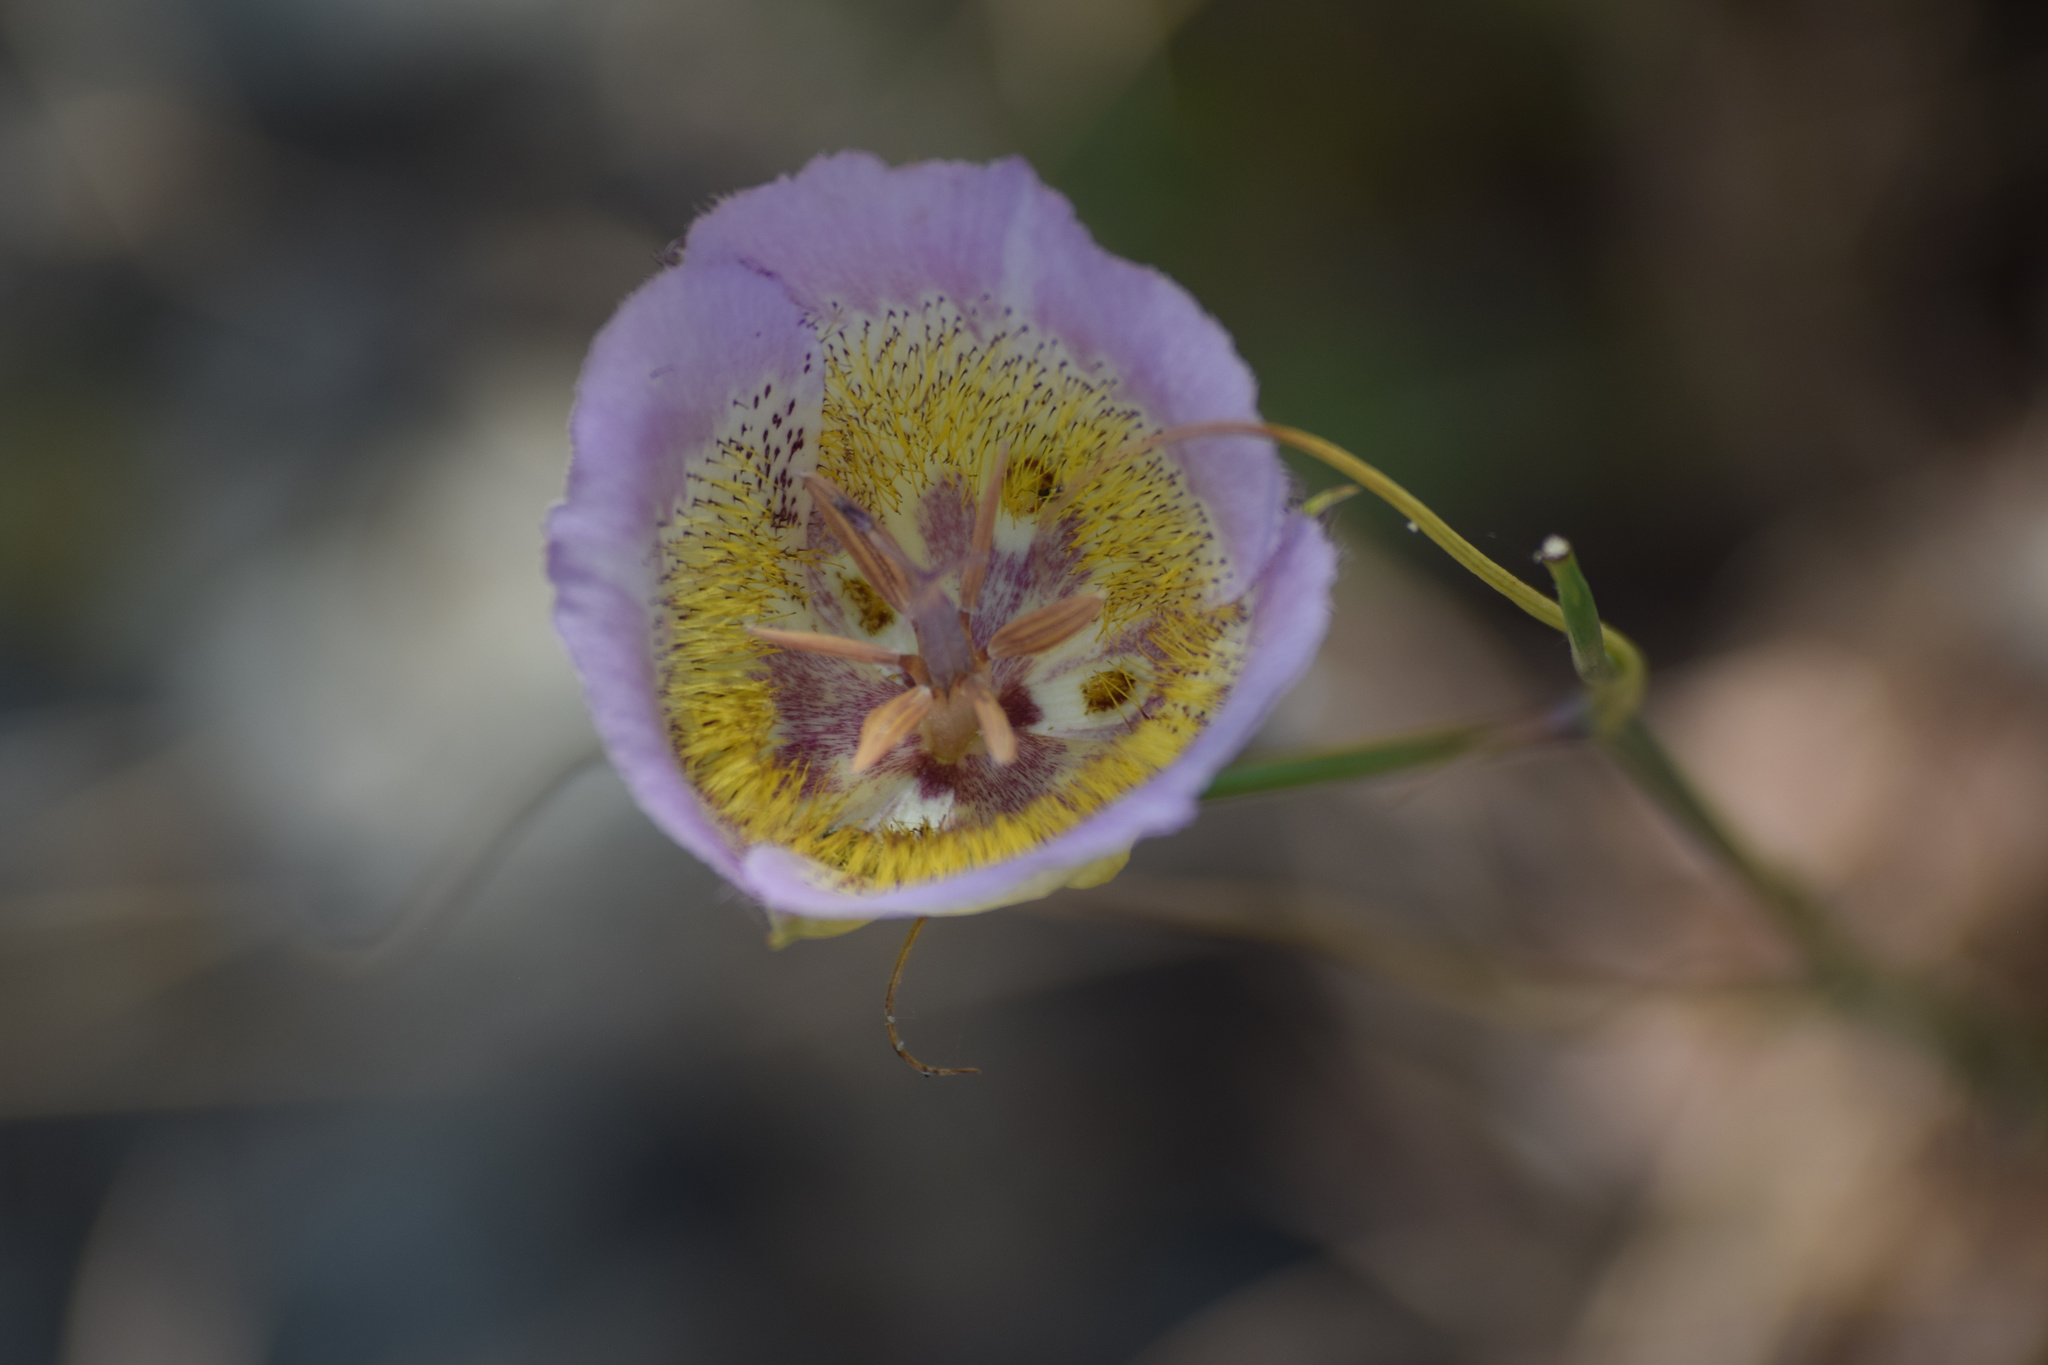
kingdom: Plantae
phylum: Tracheophyta
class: Liliopsida
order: Liliales
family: Liliaceae
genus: Calochortus
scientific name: Calochortus plummerae
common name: Plummer's mariposa-lily
